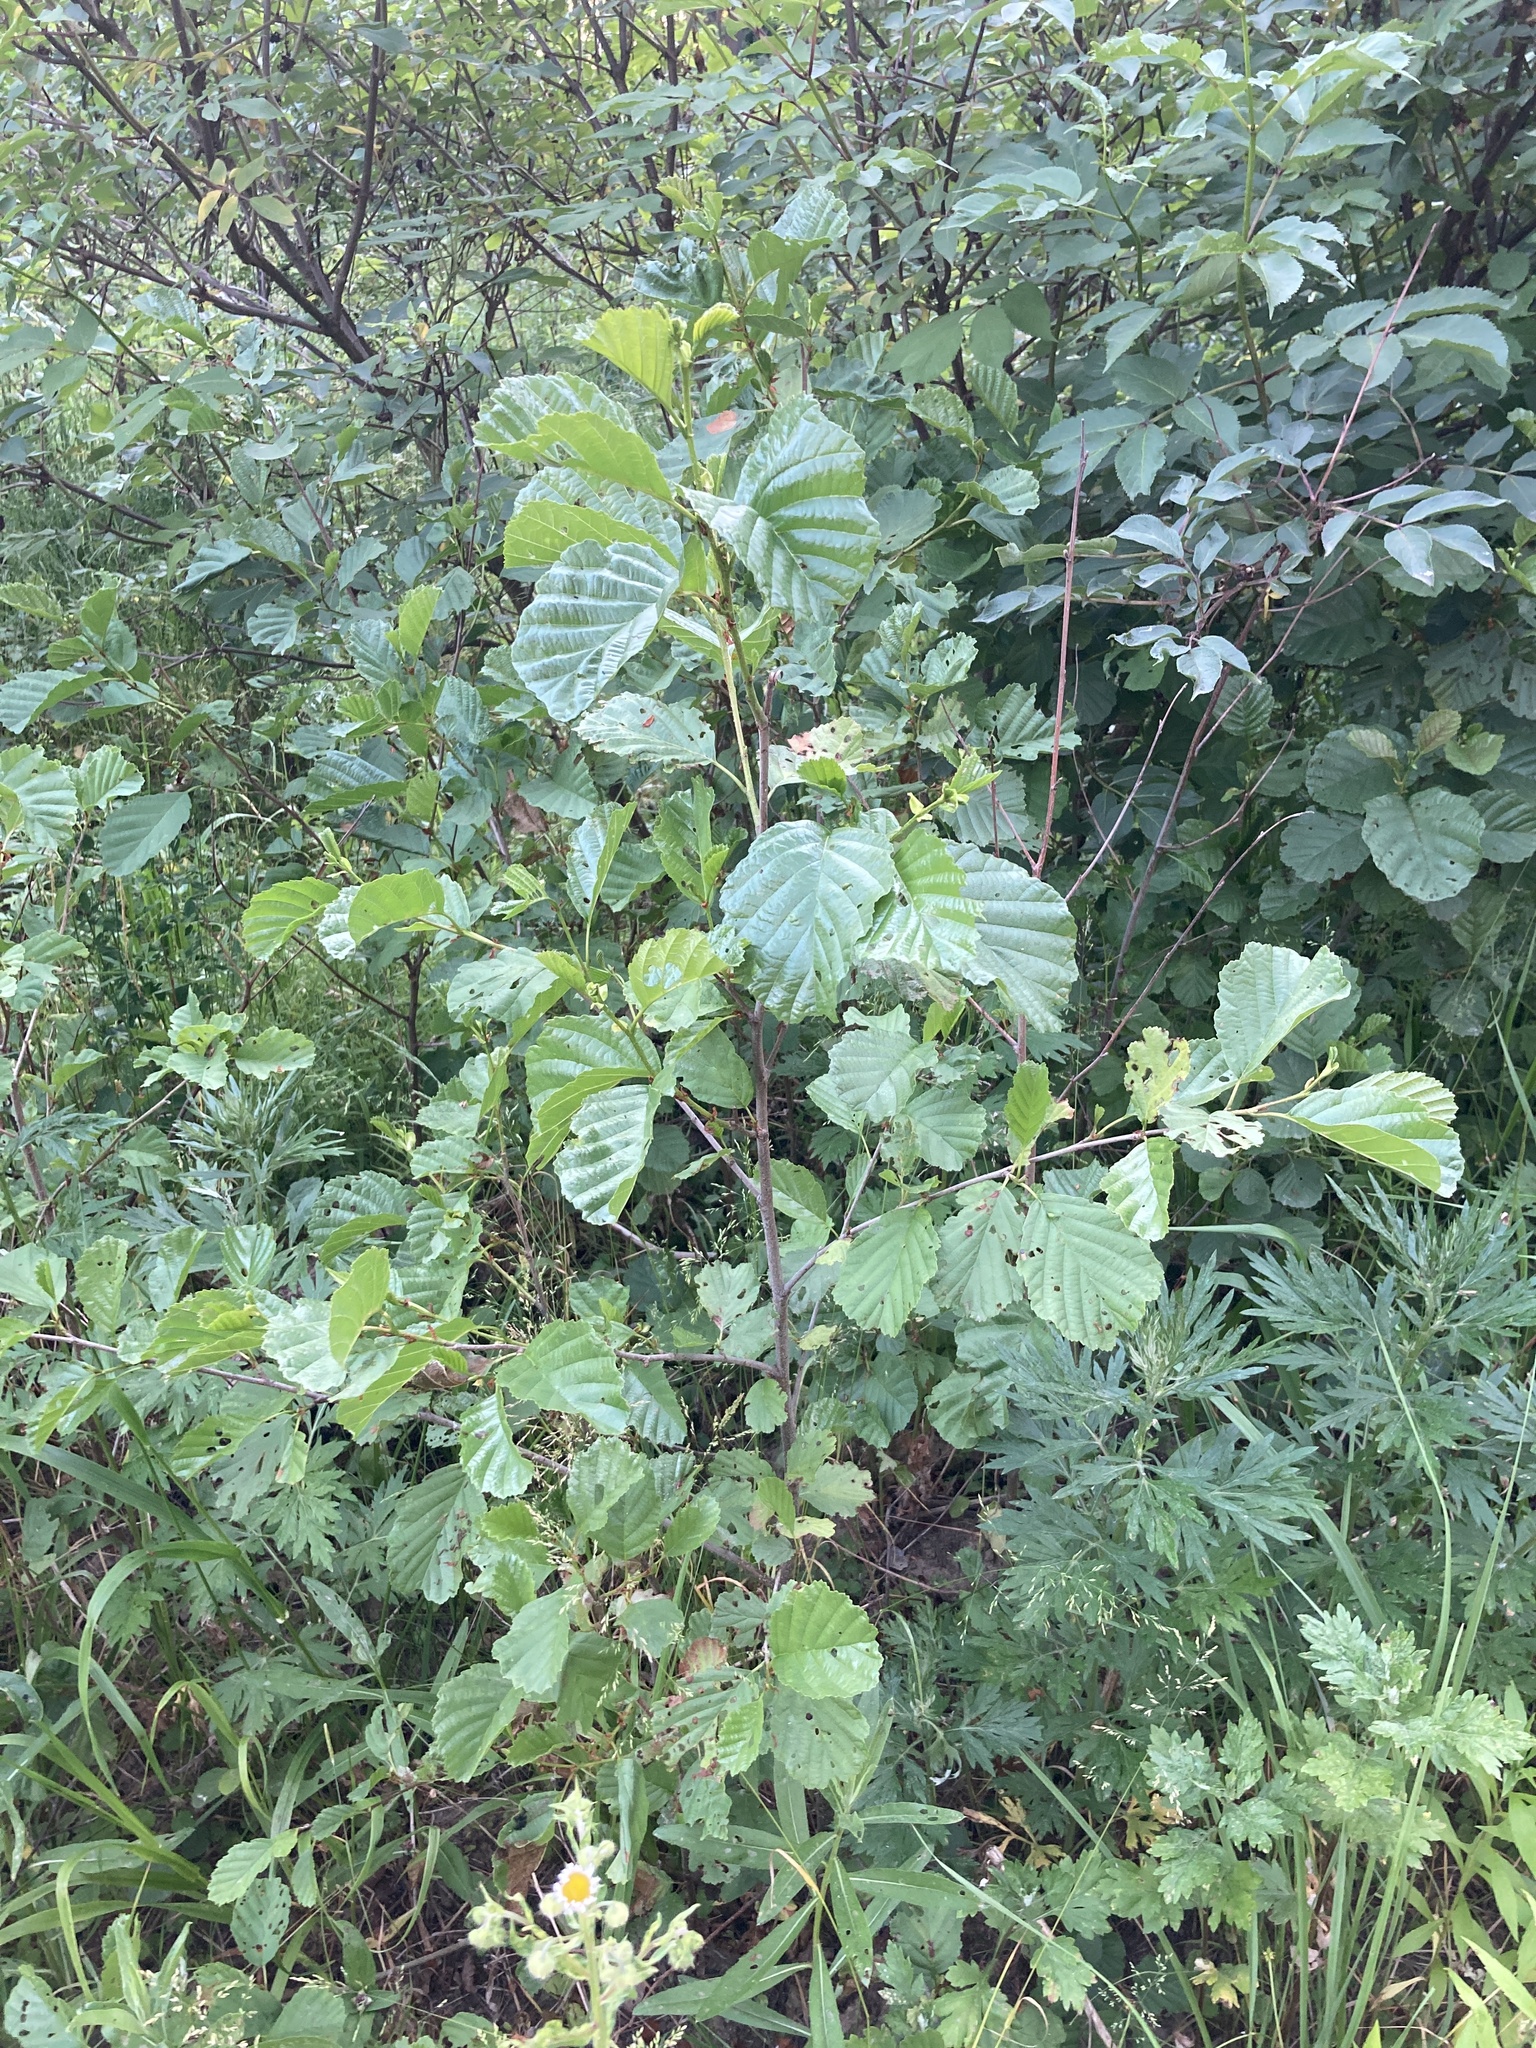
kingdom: Plantae
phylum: Tracheophyta
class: Magnoliopsida
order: Fagales
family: Betulaceae
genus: Alnus
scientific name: Alnus glutinosa
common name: Black alder
